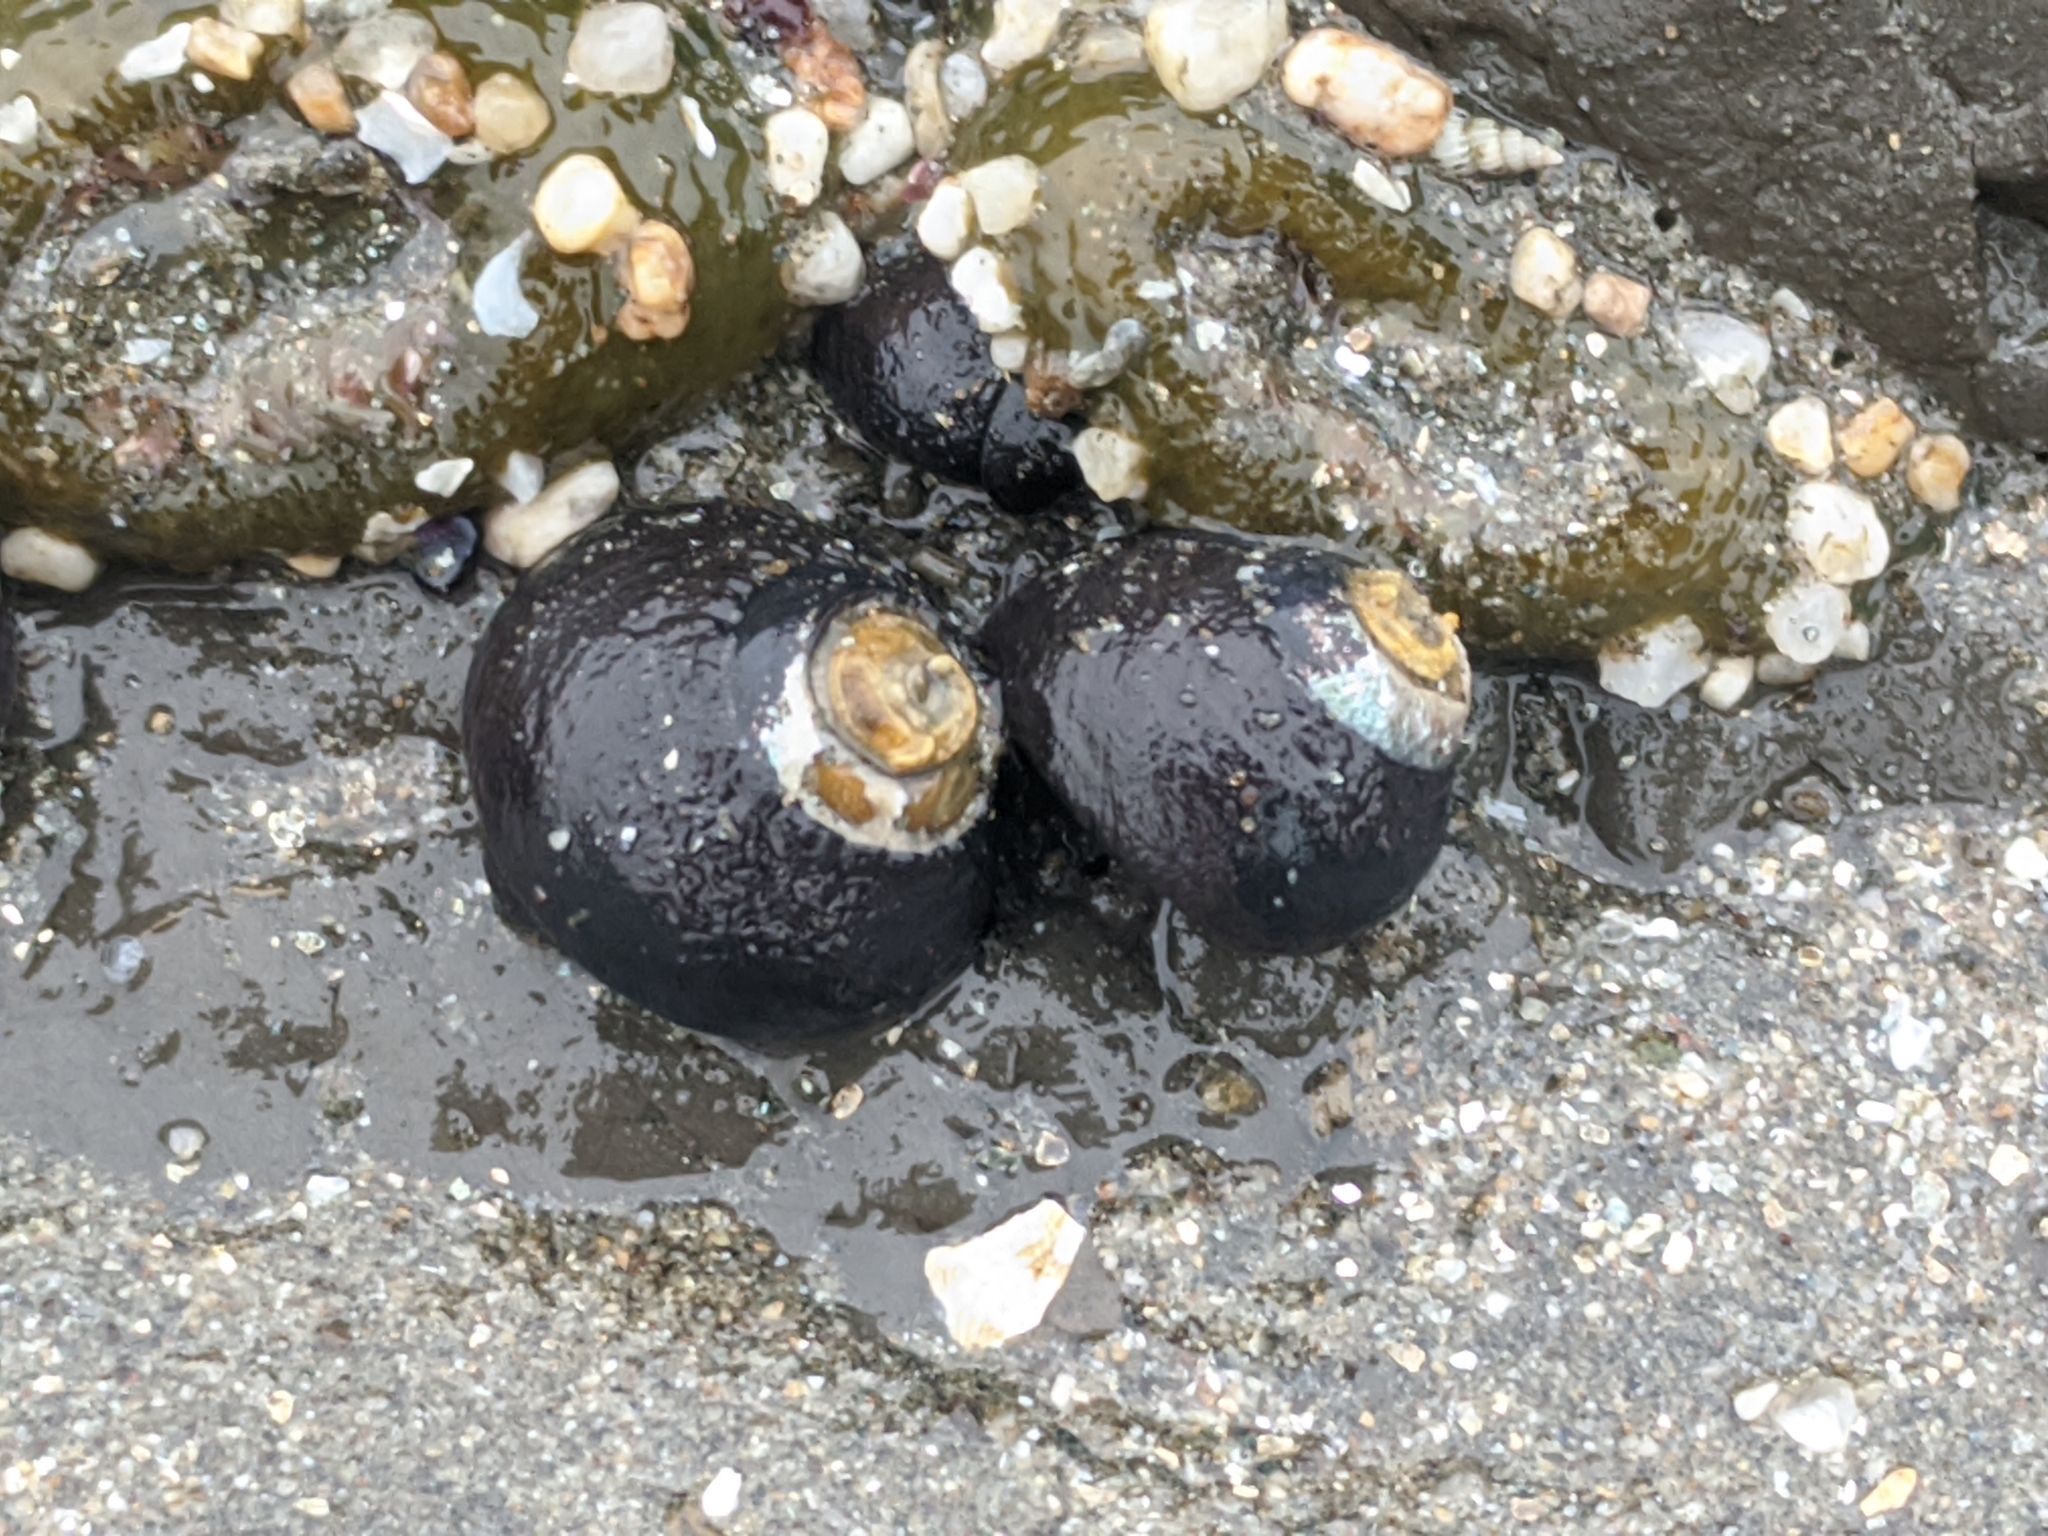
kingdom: Animalia
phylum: Mollusca
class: Gastropoda
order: Trochida
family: Tegulidae
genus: Tegula
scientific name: Tegula funebralis
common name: Black tegula
